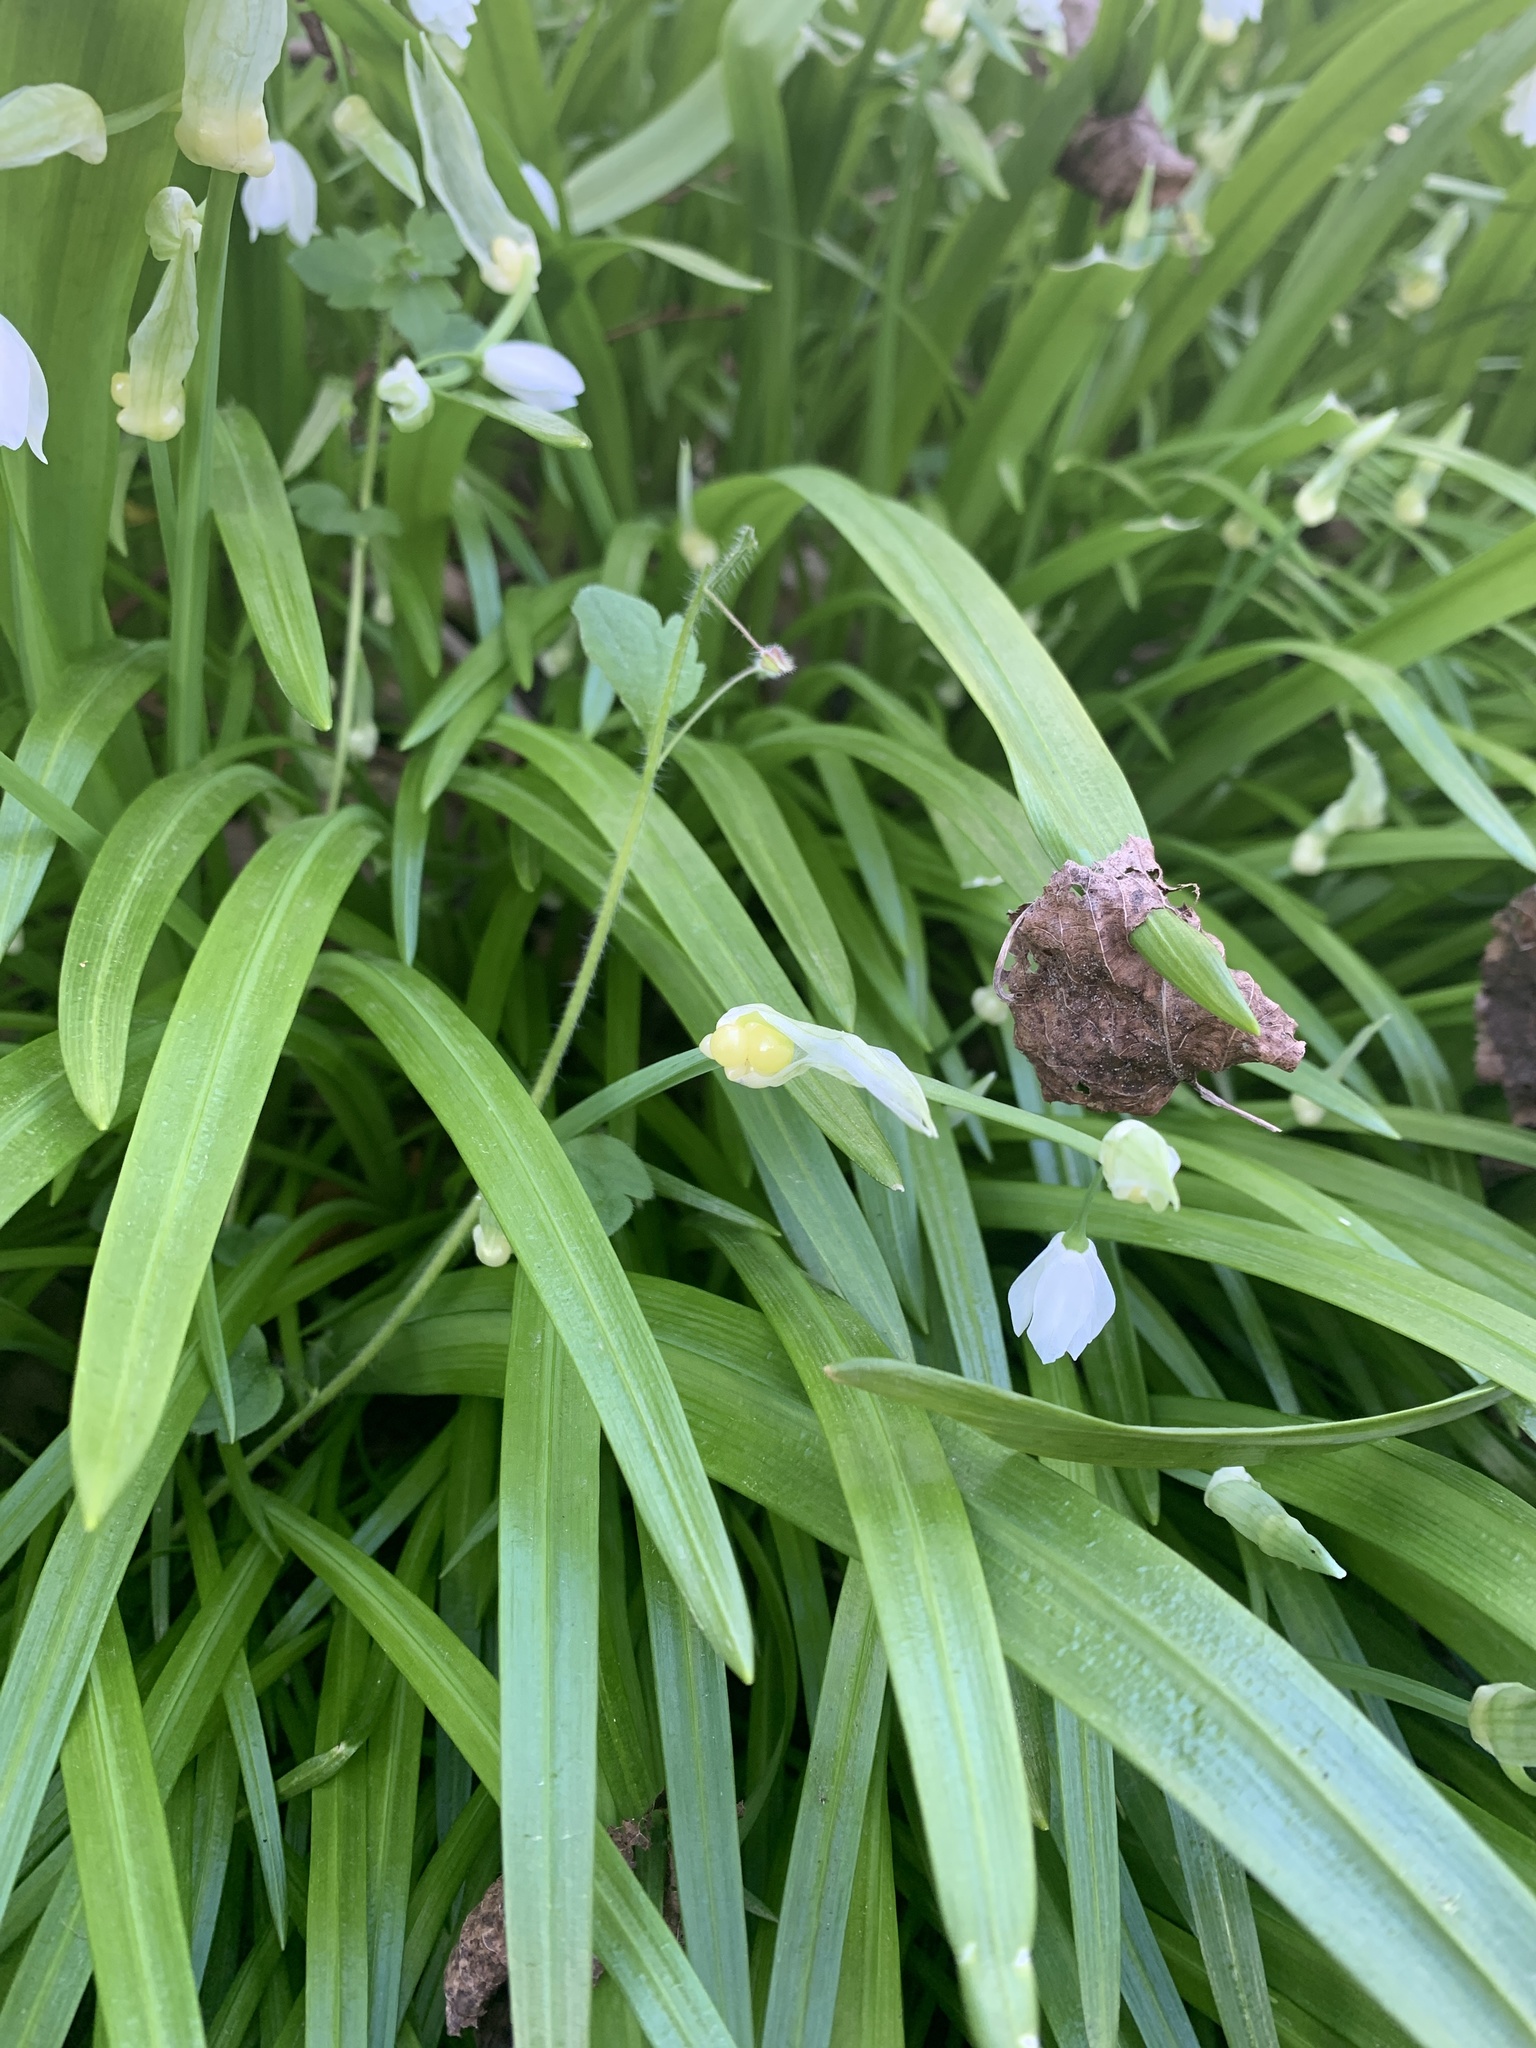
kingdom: Plantae
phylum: Tracheophyta
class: Liliopsida
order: Asparagales
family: Amaryllidaceae
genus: Allium
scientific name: Allium paradoxum
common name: Few-flowered garlic
